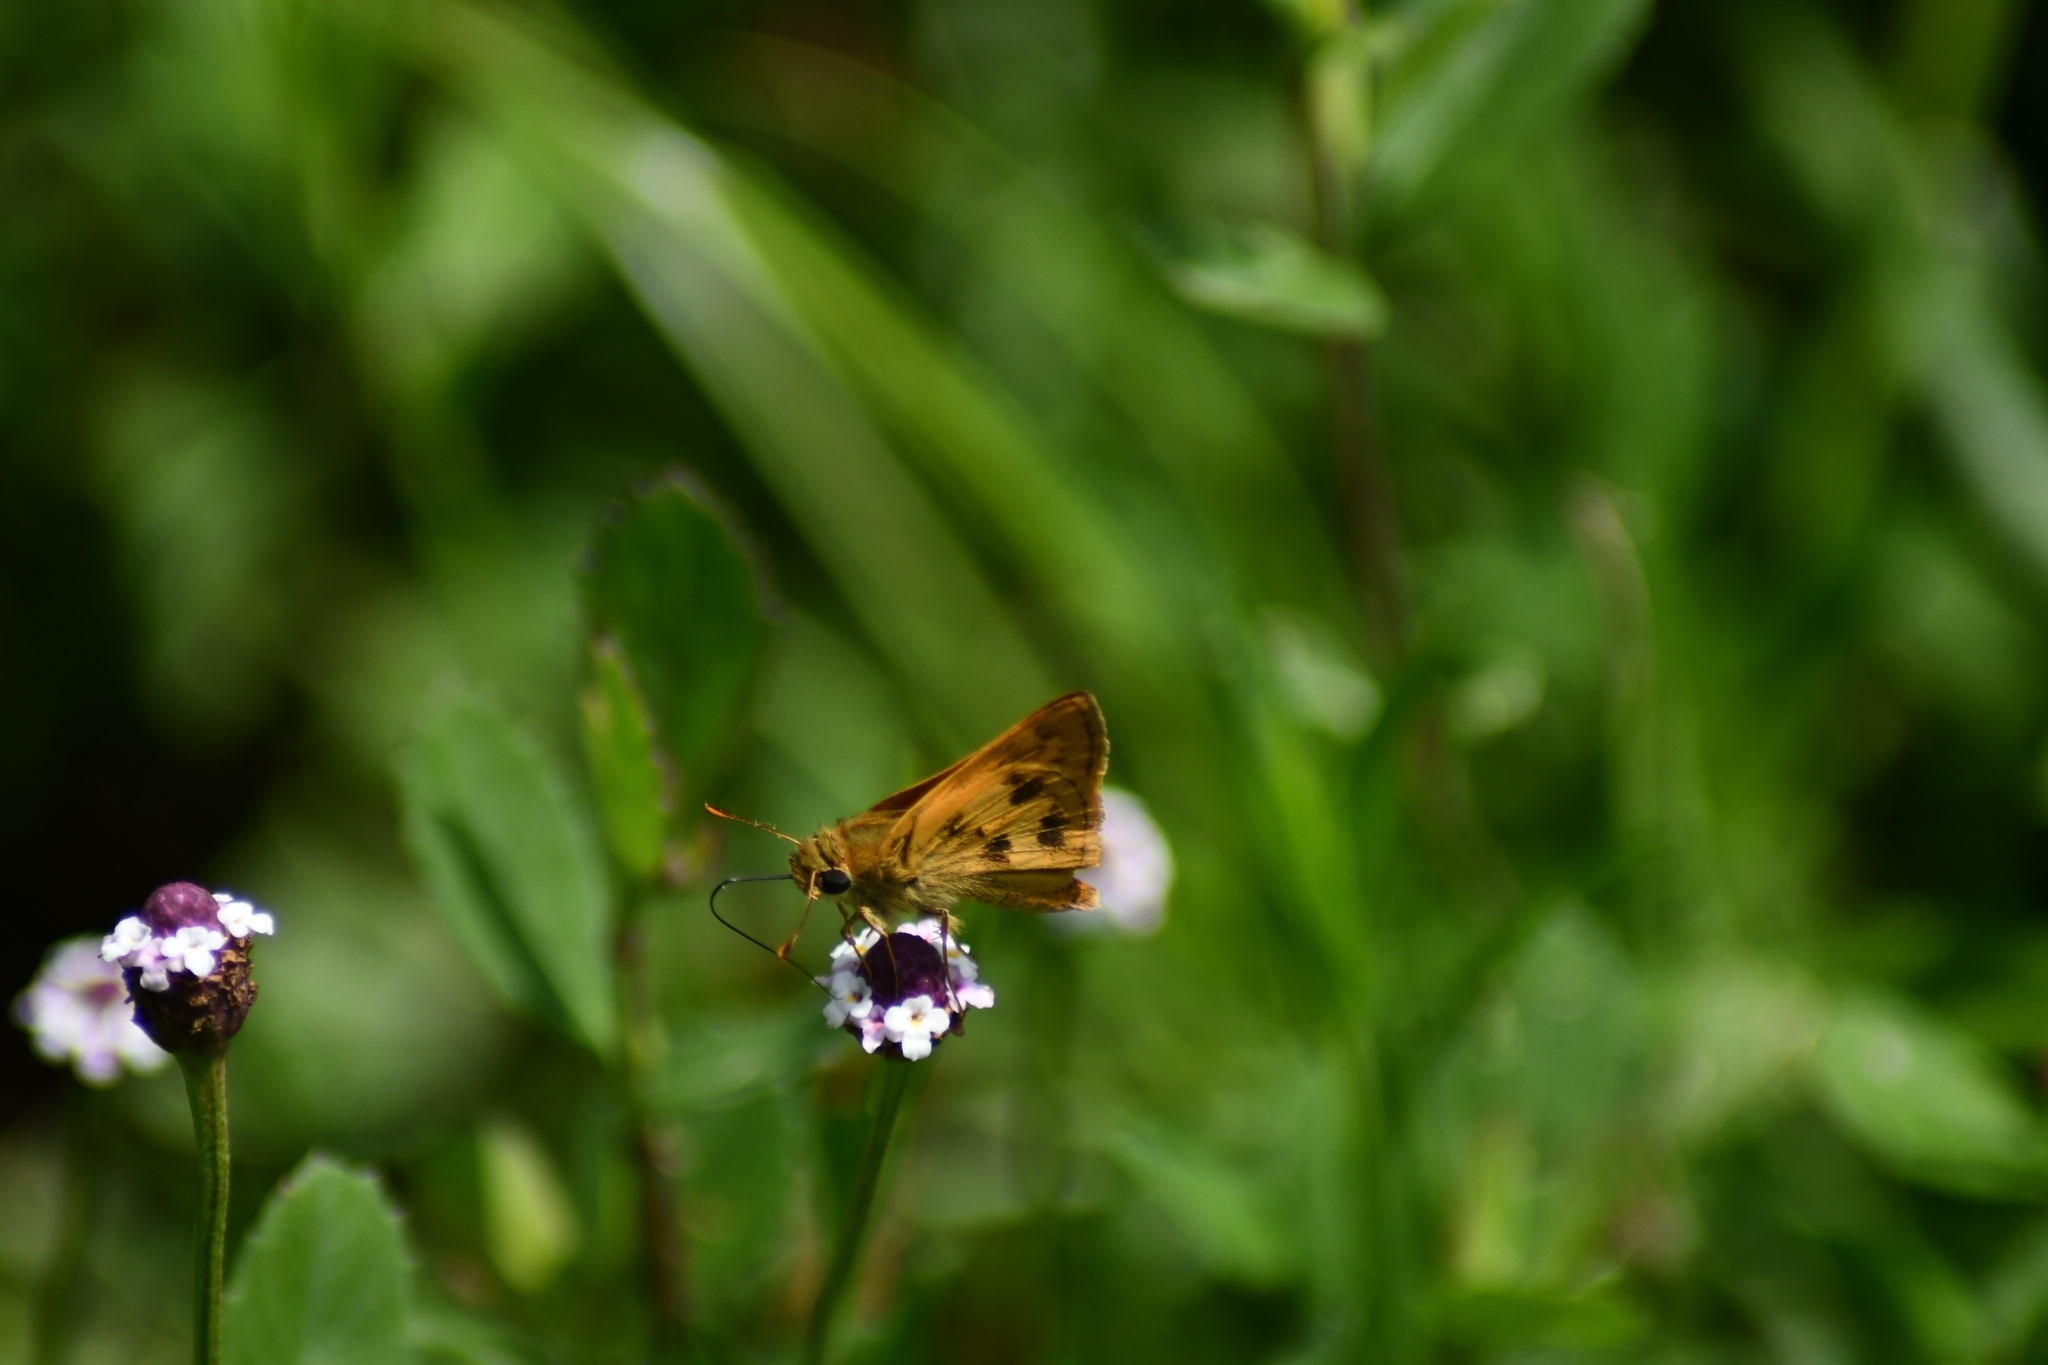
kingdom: Animalia
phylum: Arthropoda
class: Insecta
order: Lepidoptera
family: Hesperiidae
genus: Polites
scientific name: Polites vibex
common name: Whirlabout
